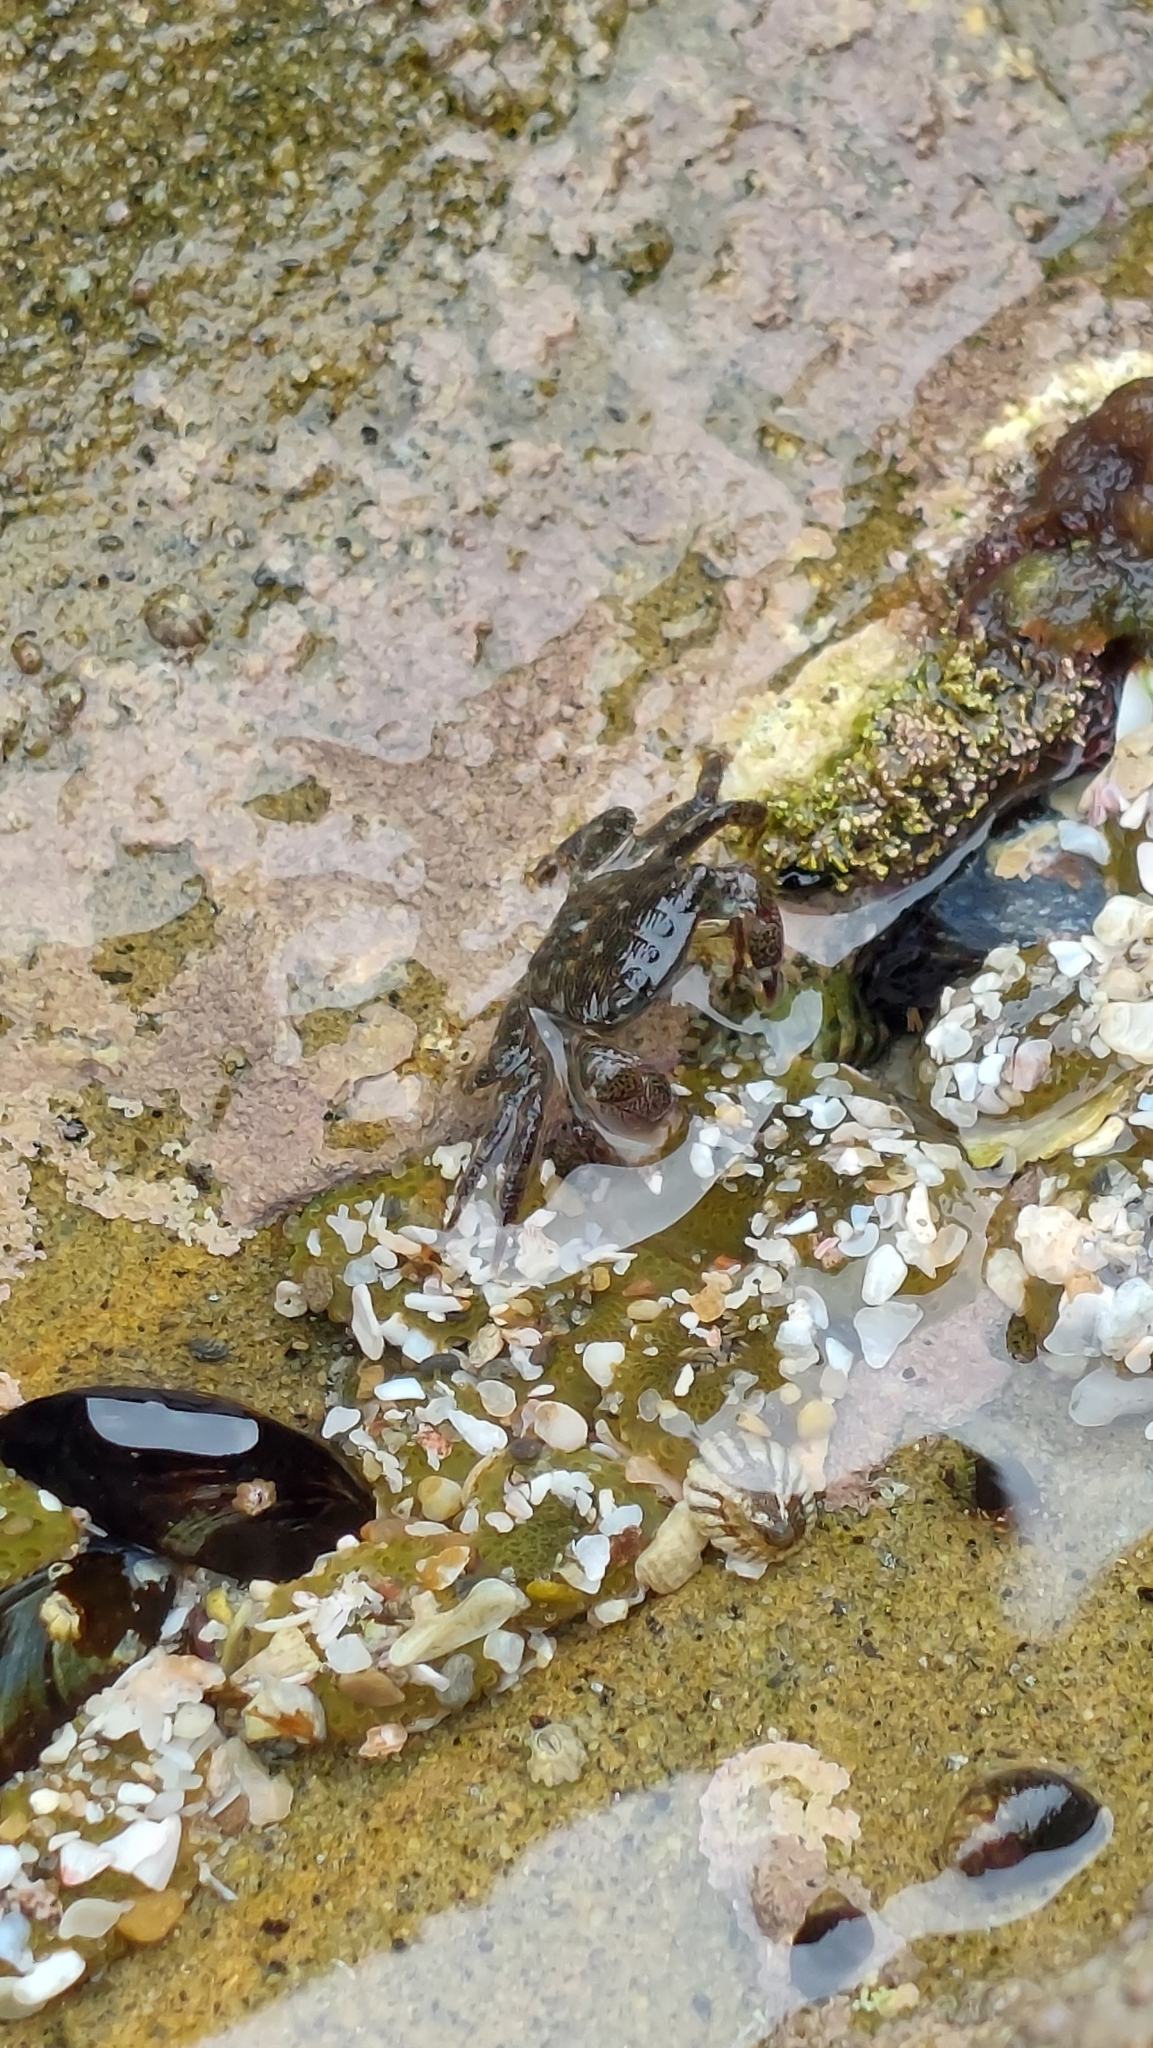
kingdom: Animalia
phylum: Arthropoda
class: Malacostraca
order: Decapoda
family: Grapsidae
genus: Pachygrapsus
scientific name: Pachygrapsus crassipes
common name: Striped shore crab
